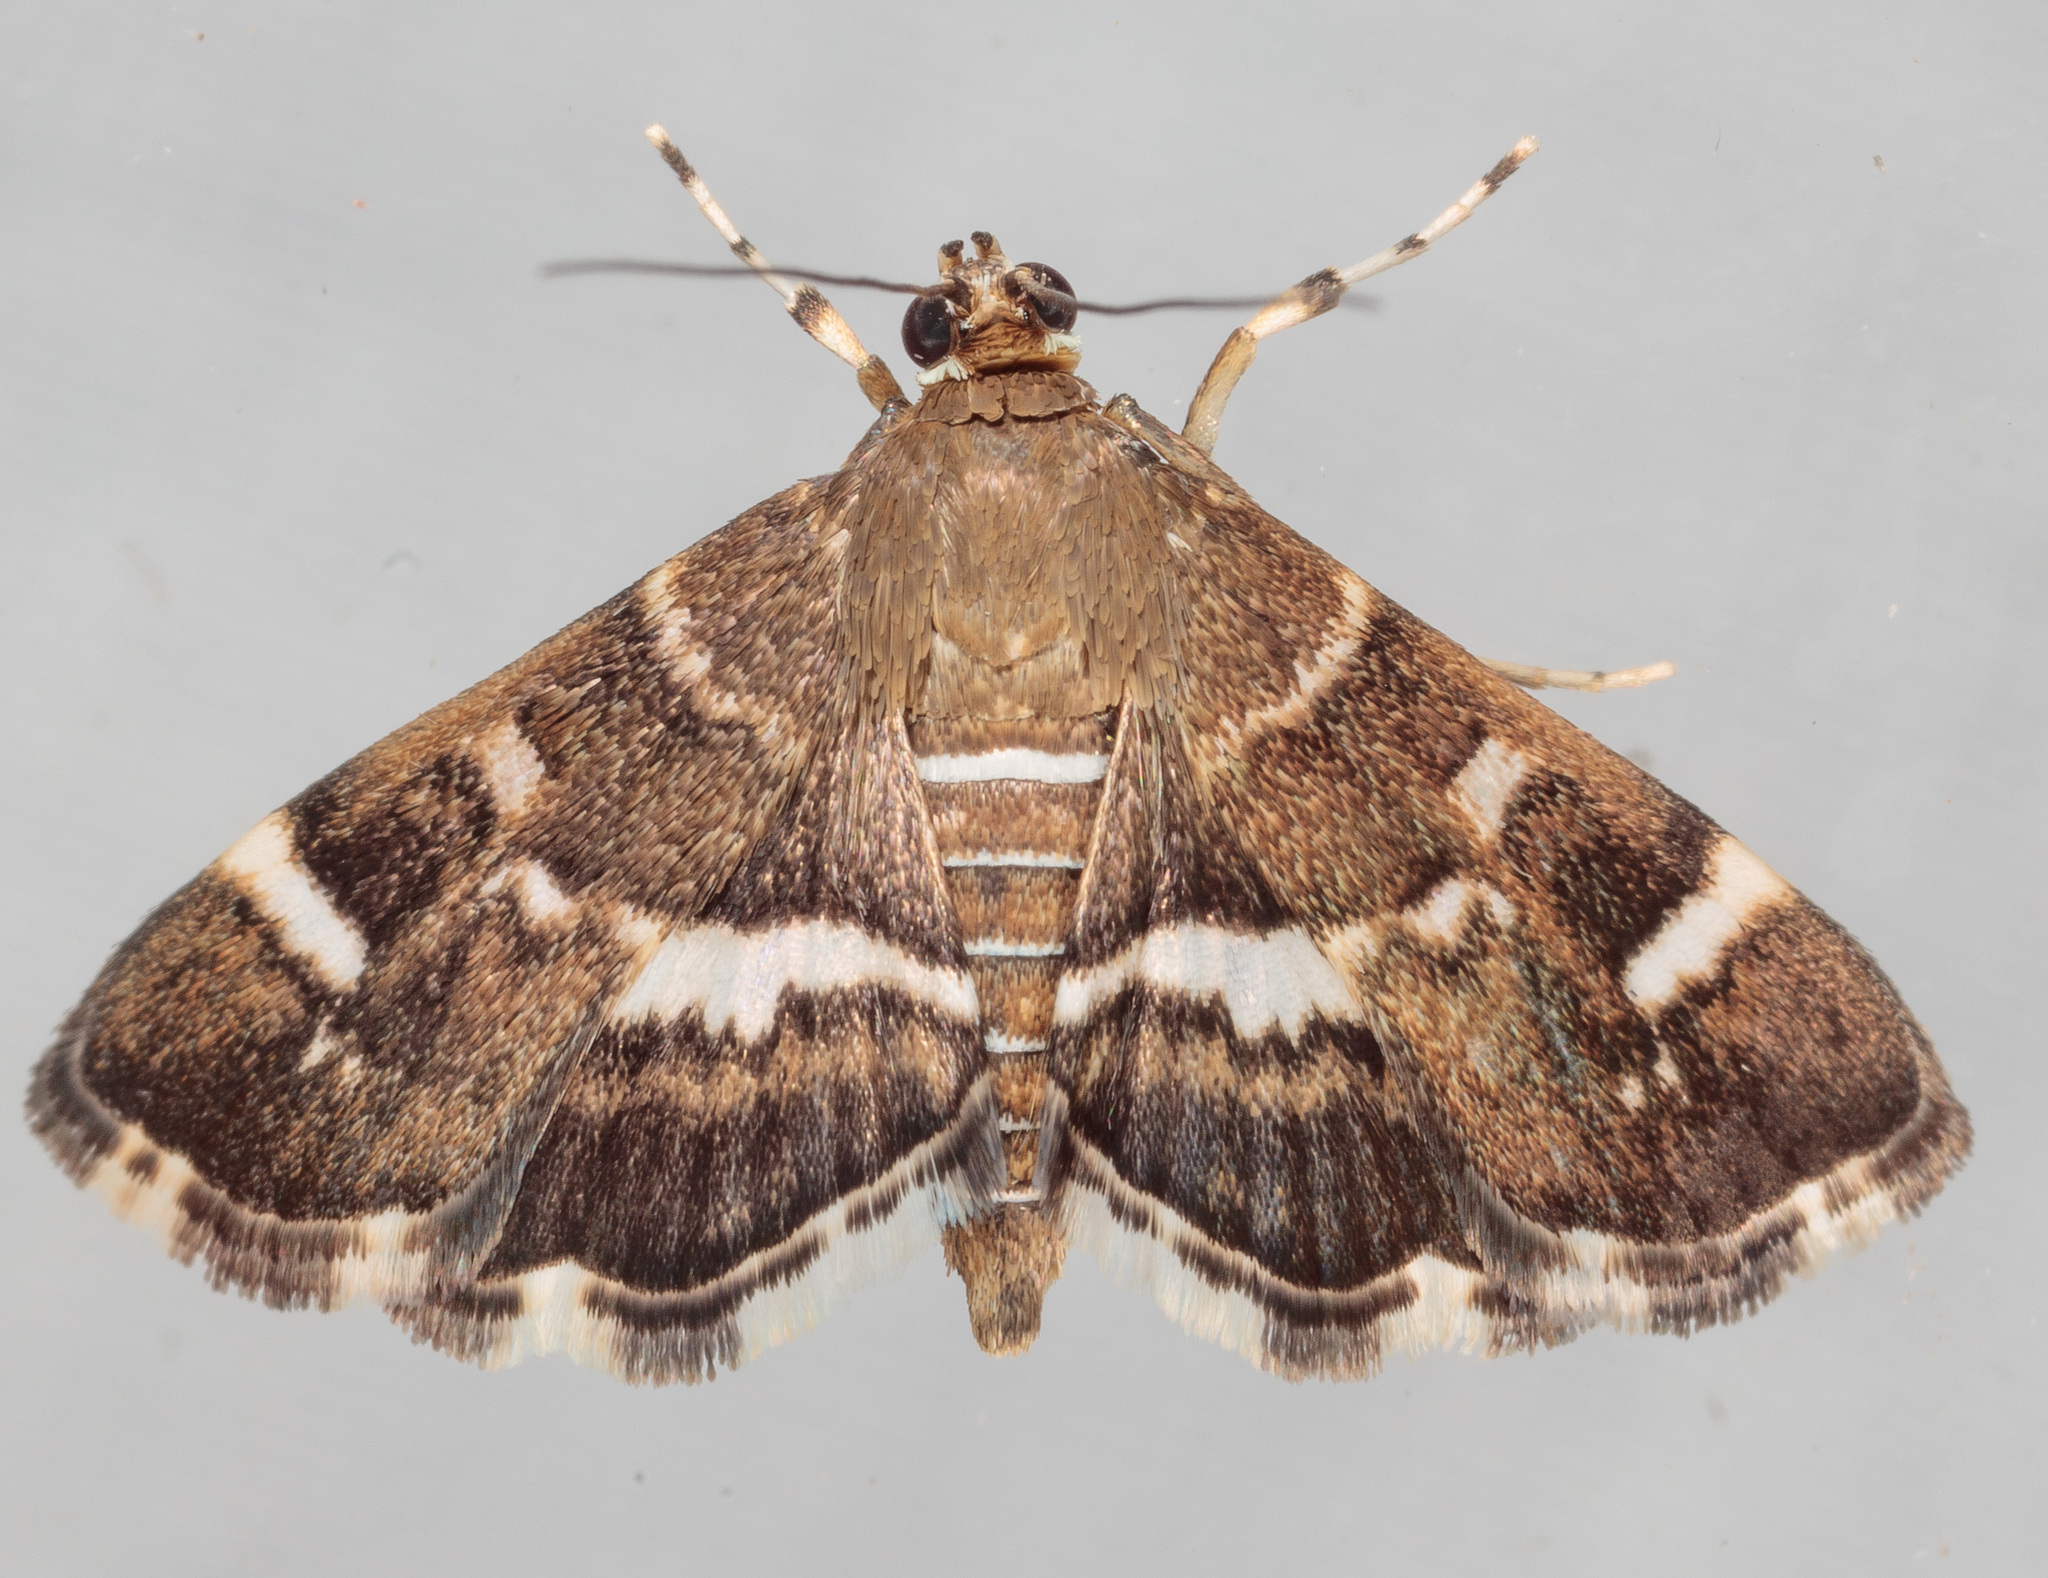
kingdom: Animalia
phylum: Arthropoda
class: Insecta
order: Lepidoptera
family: Crambidae
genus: Hymenia
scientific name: Hymenia perspectalis
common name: Spotted beet webworm
